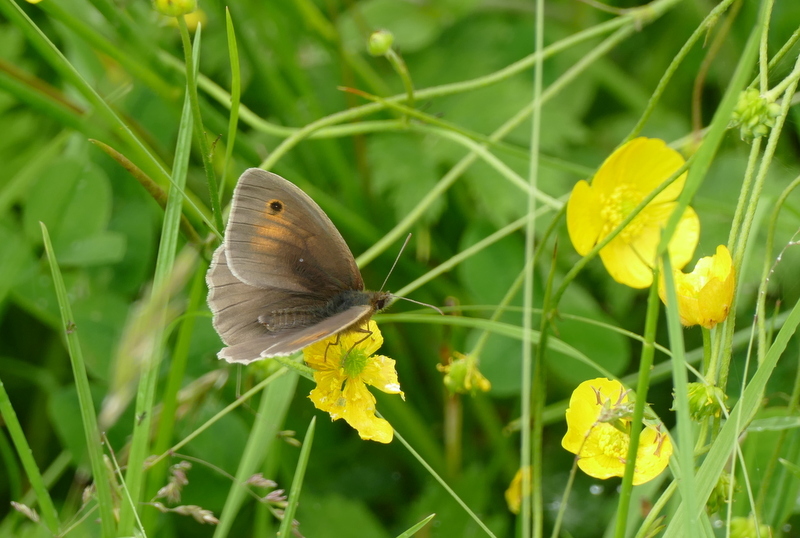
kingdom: Animalia
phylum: Arthropoda
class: Insecta
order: Lepidoptera
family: Nymphalidae
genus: Maniola
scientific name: Maniola jurtina
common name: Meadow brown
